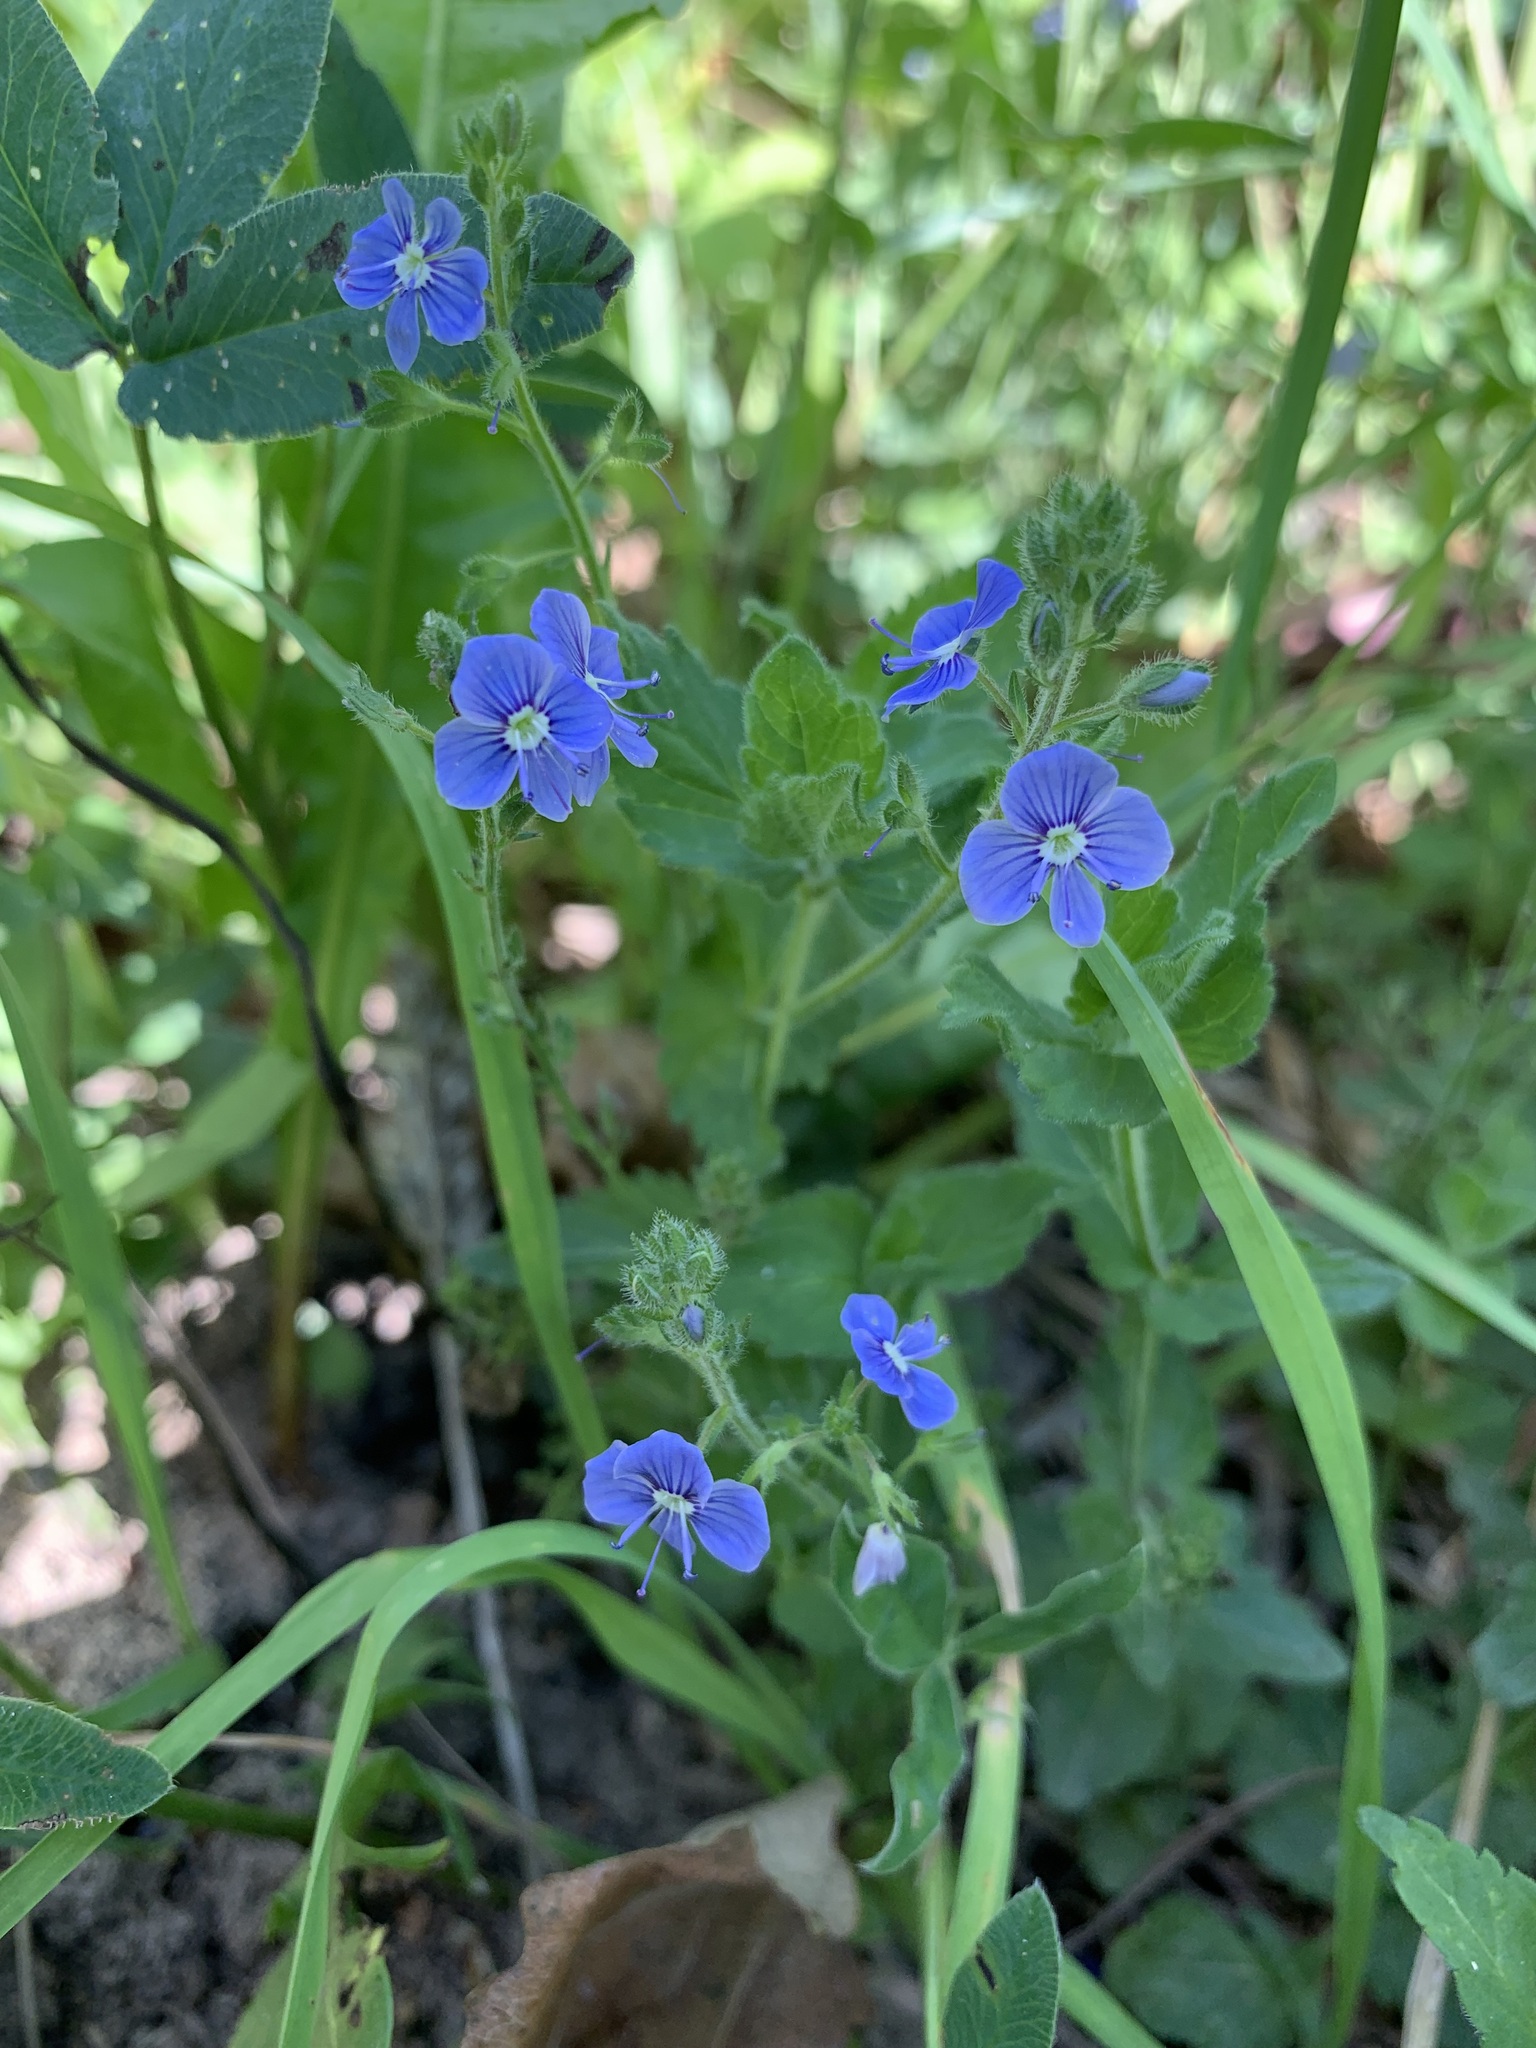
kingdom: Plantae
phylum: Tracheophyta
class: Magnoliopsida
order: Lamiales
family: Plantaginaceae
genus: Veronica
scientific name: Veronica chamaedrys
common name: Germander speedwell
